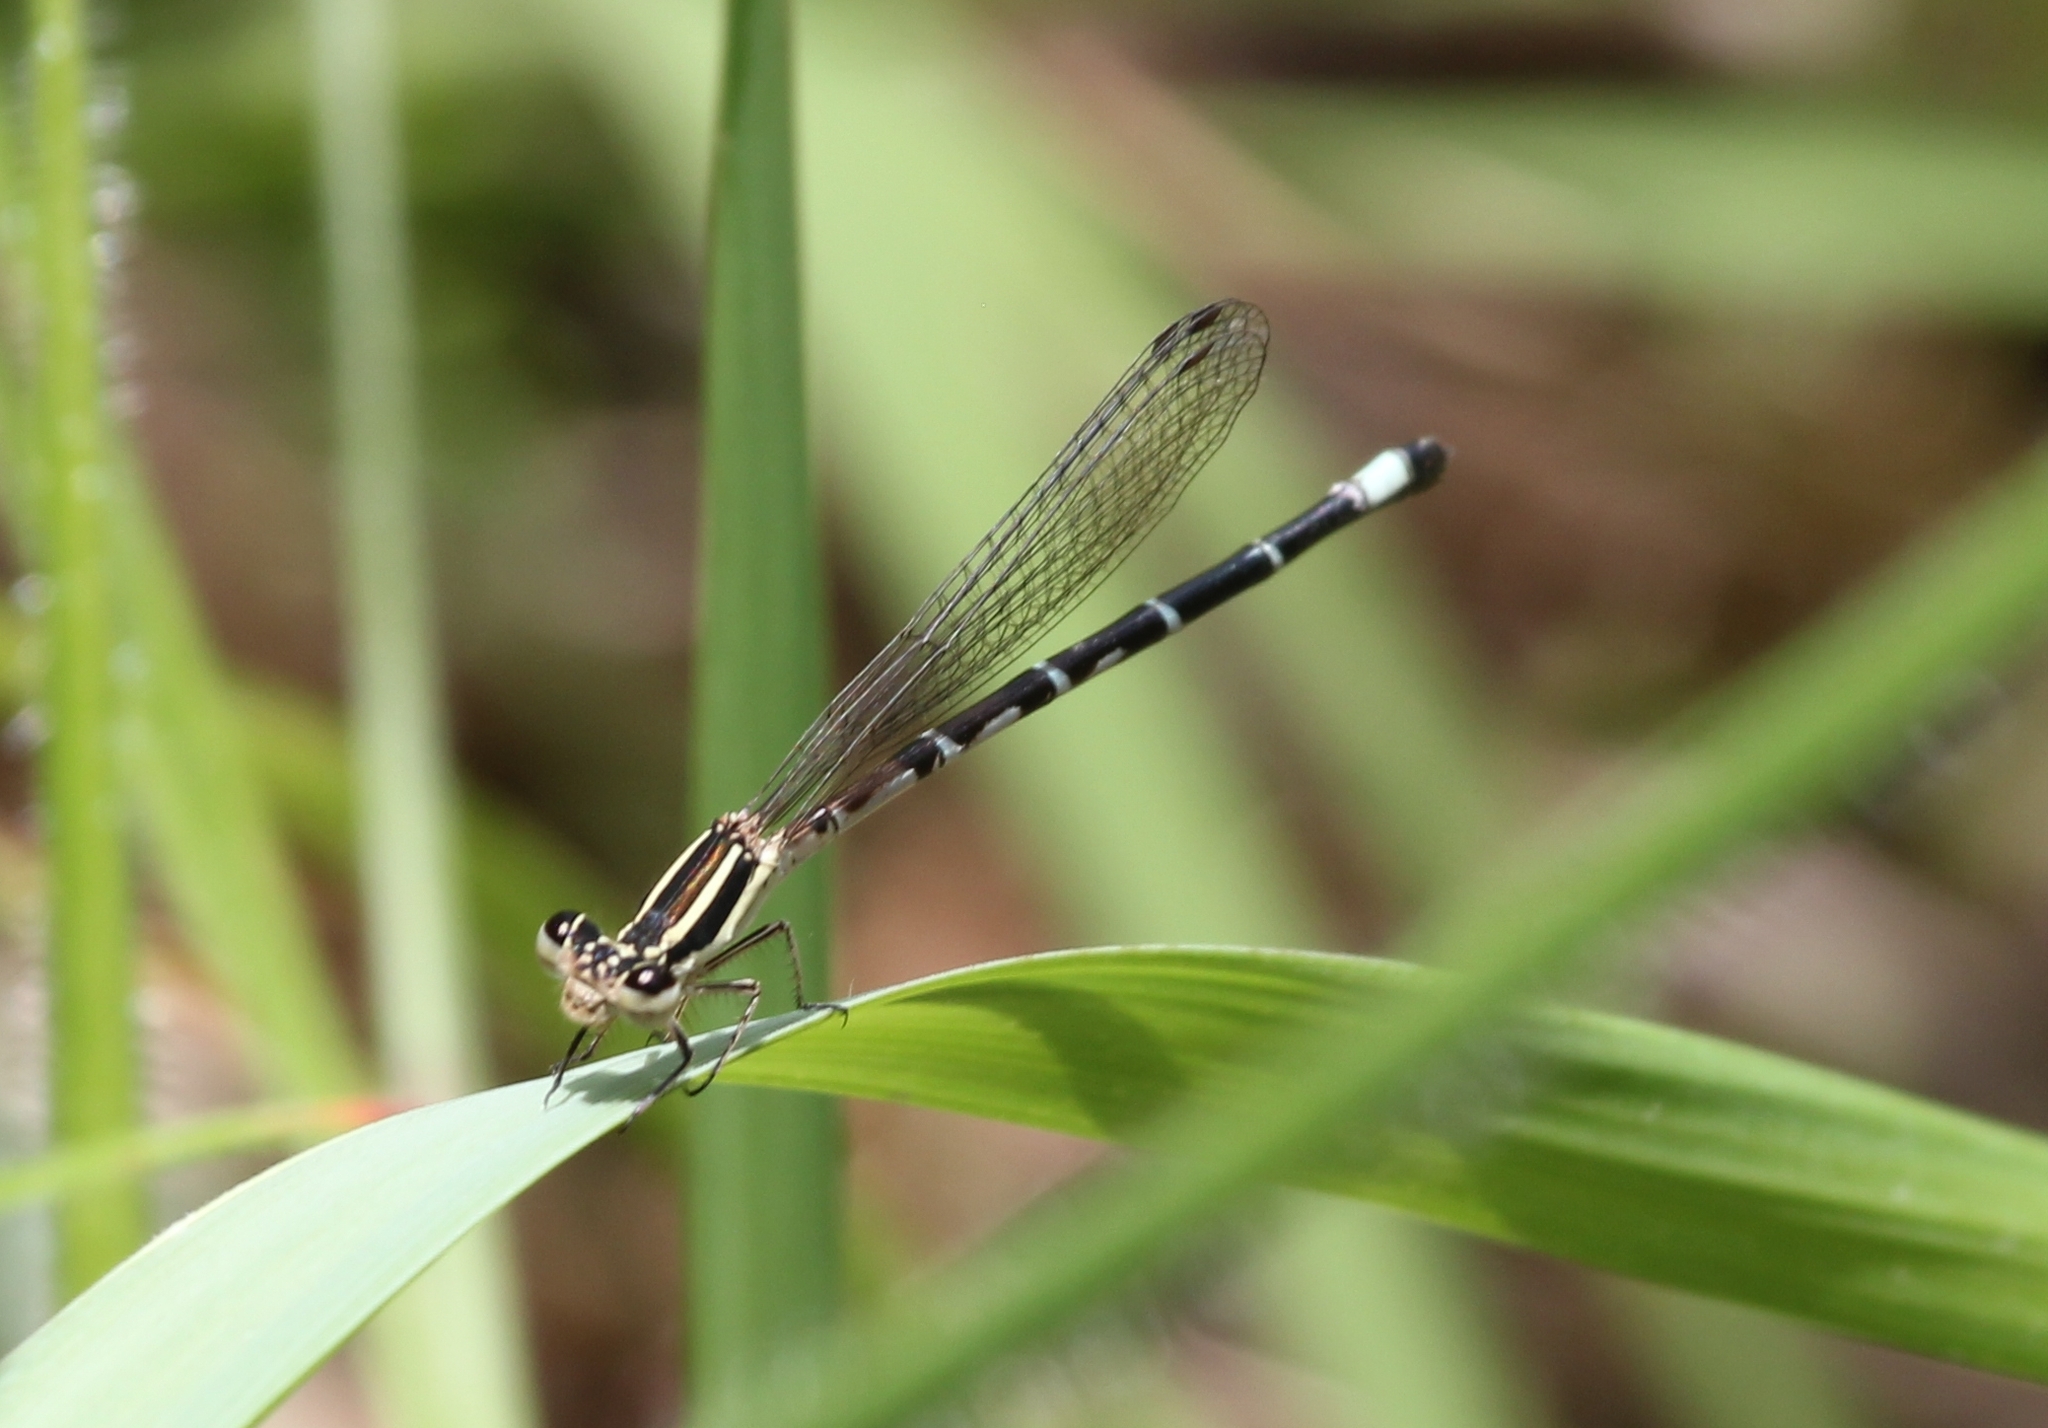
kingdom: Animalia
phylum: Arthropoda
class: Insecta
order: Odonata
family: Coenagrionidae
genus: Argia
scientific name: Argia bipunctulata
